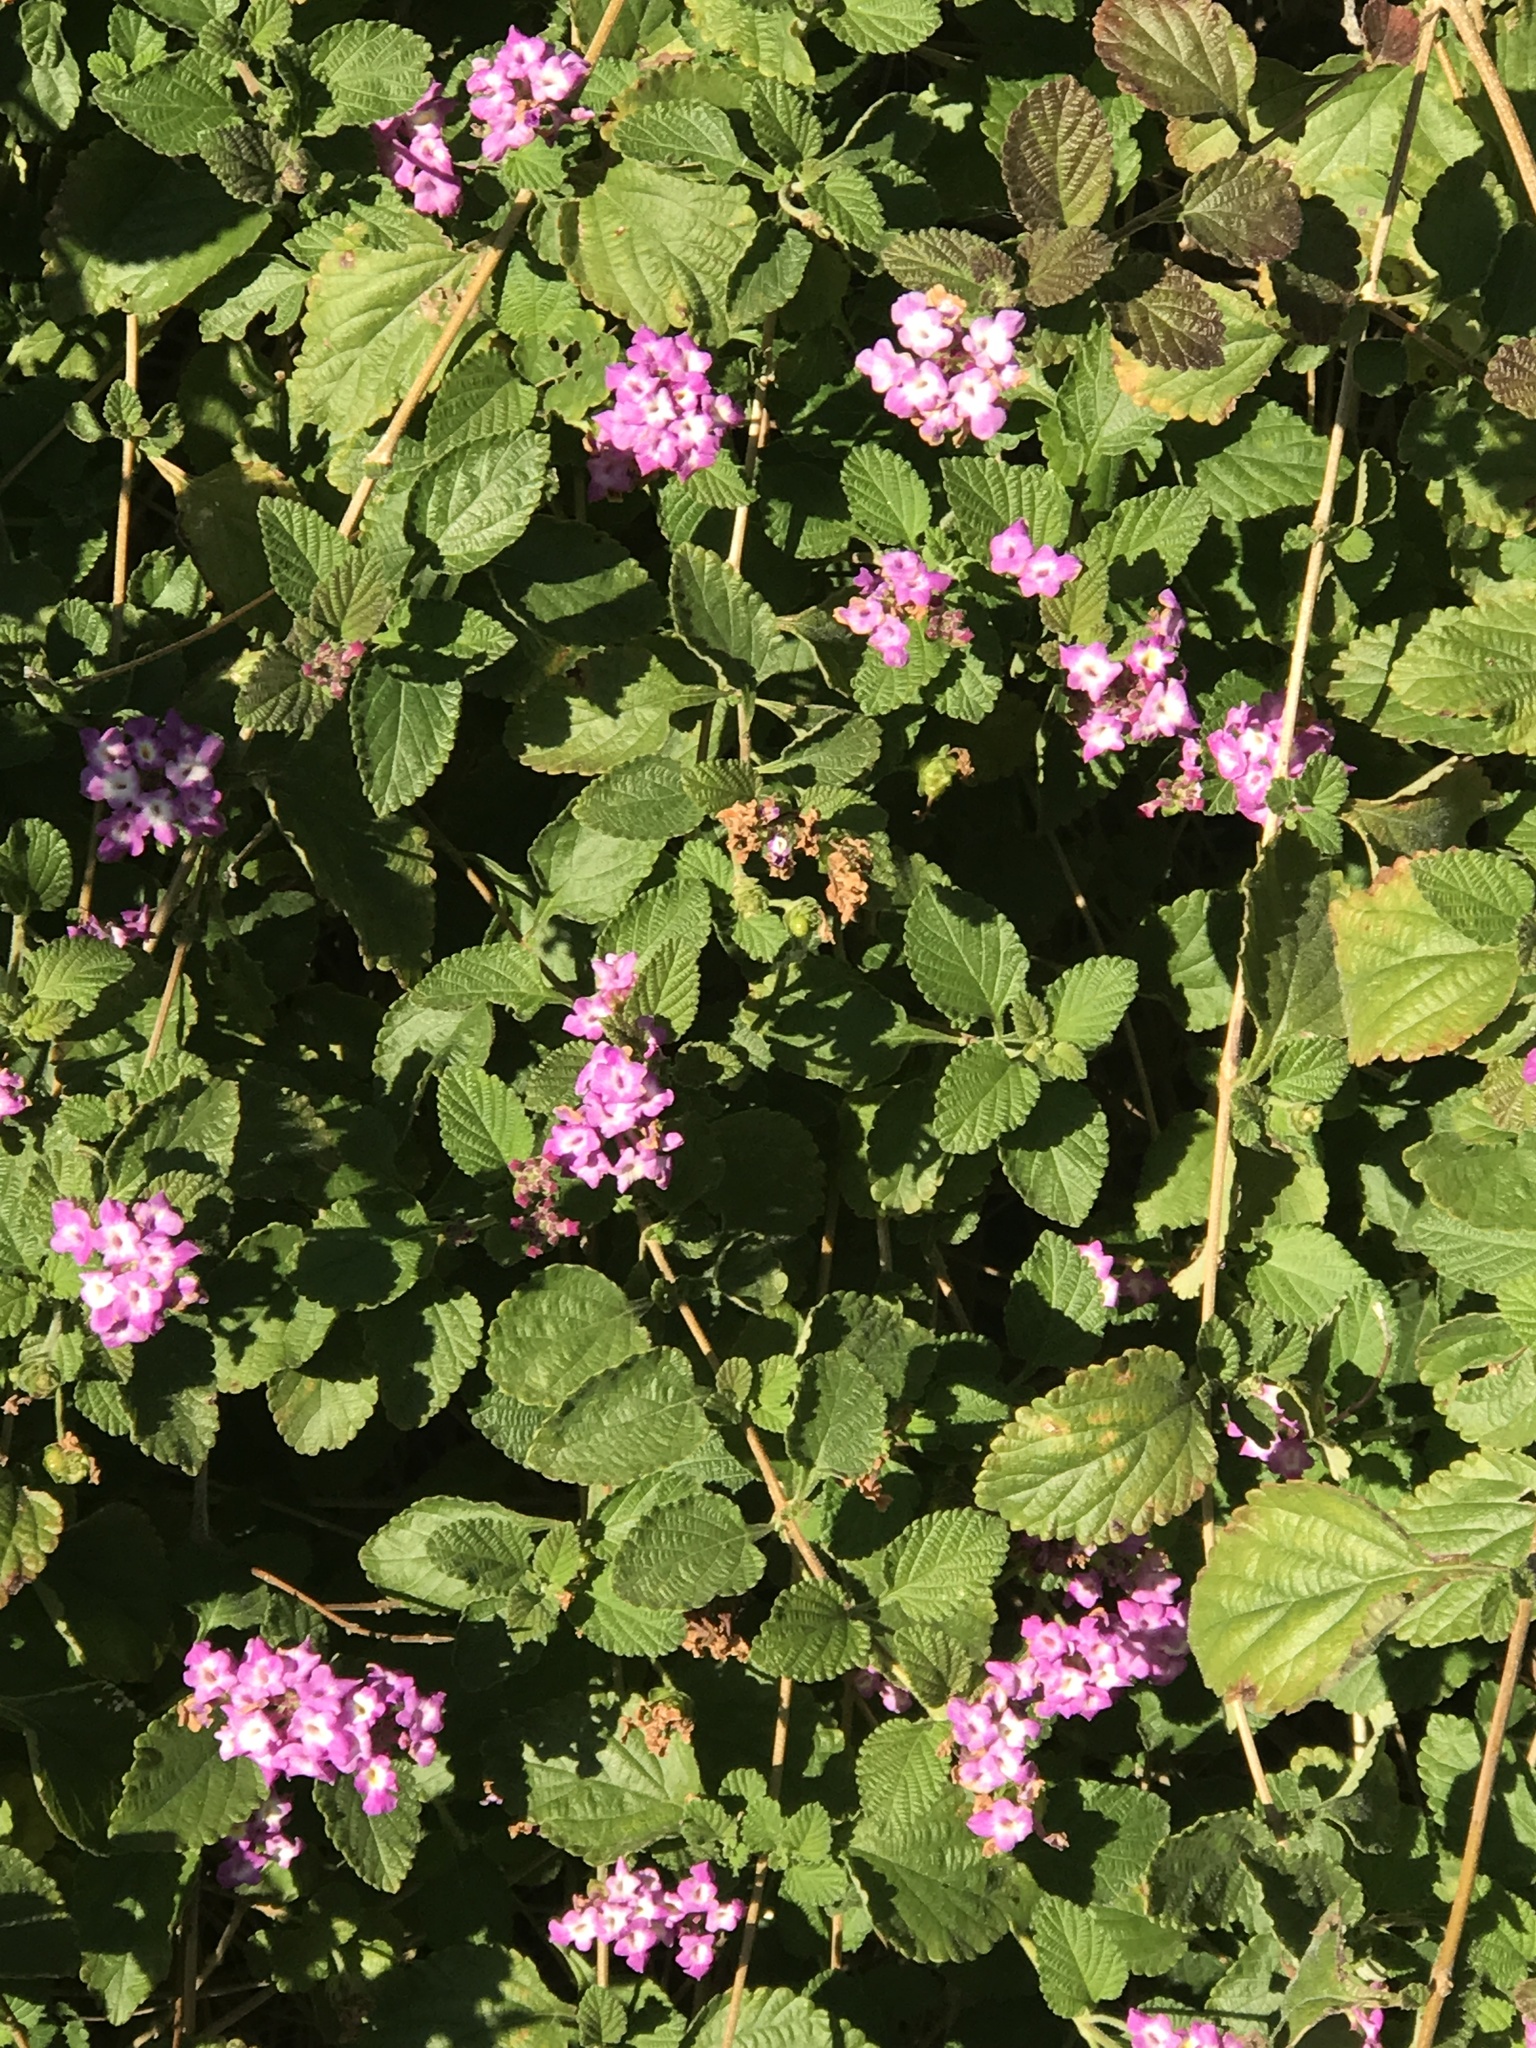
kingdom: Plantae
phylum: Tracheophyta
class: Magnoliopsida
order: Lamiales
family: Verbenaceae
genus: Lantana
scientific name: Lantana montevidensis
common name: Trailing shrubverbena
